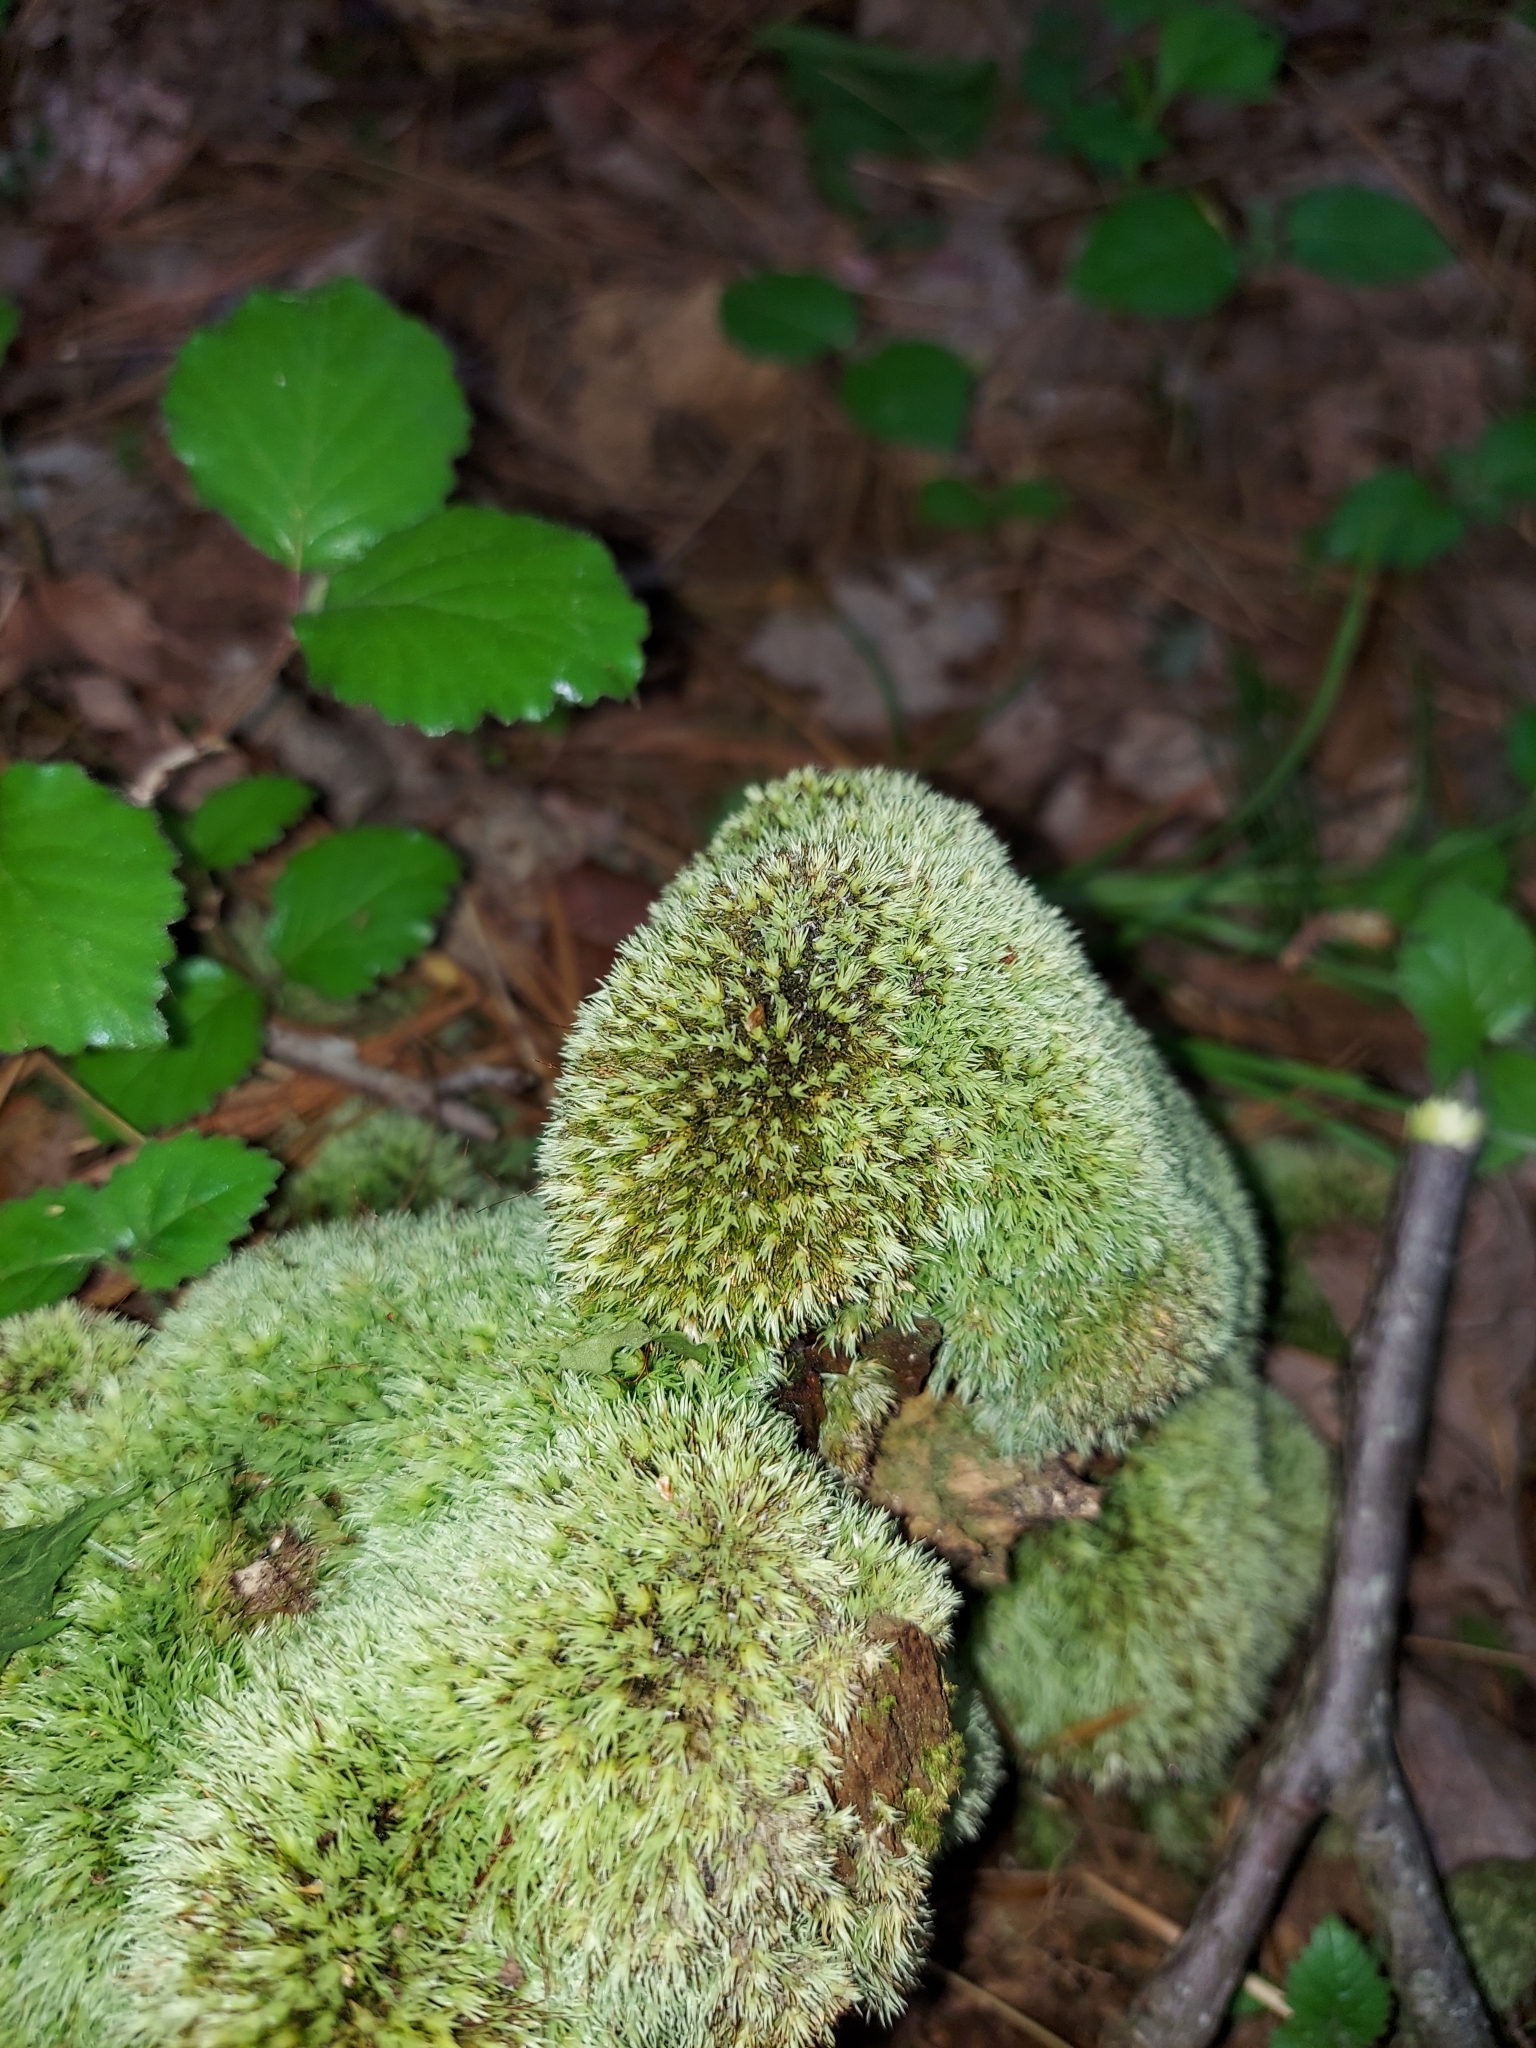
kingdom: Plantae
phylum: Bryophyta
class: Bryopsida
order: Dicranales
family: Leucobryaceae
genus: Leucobryum
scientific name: Leucobryum glaucum
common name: Large white-moss
